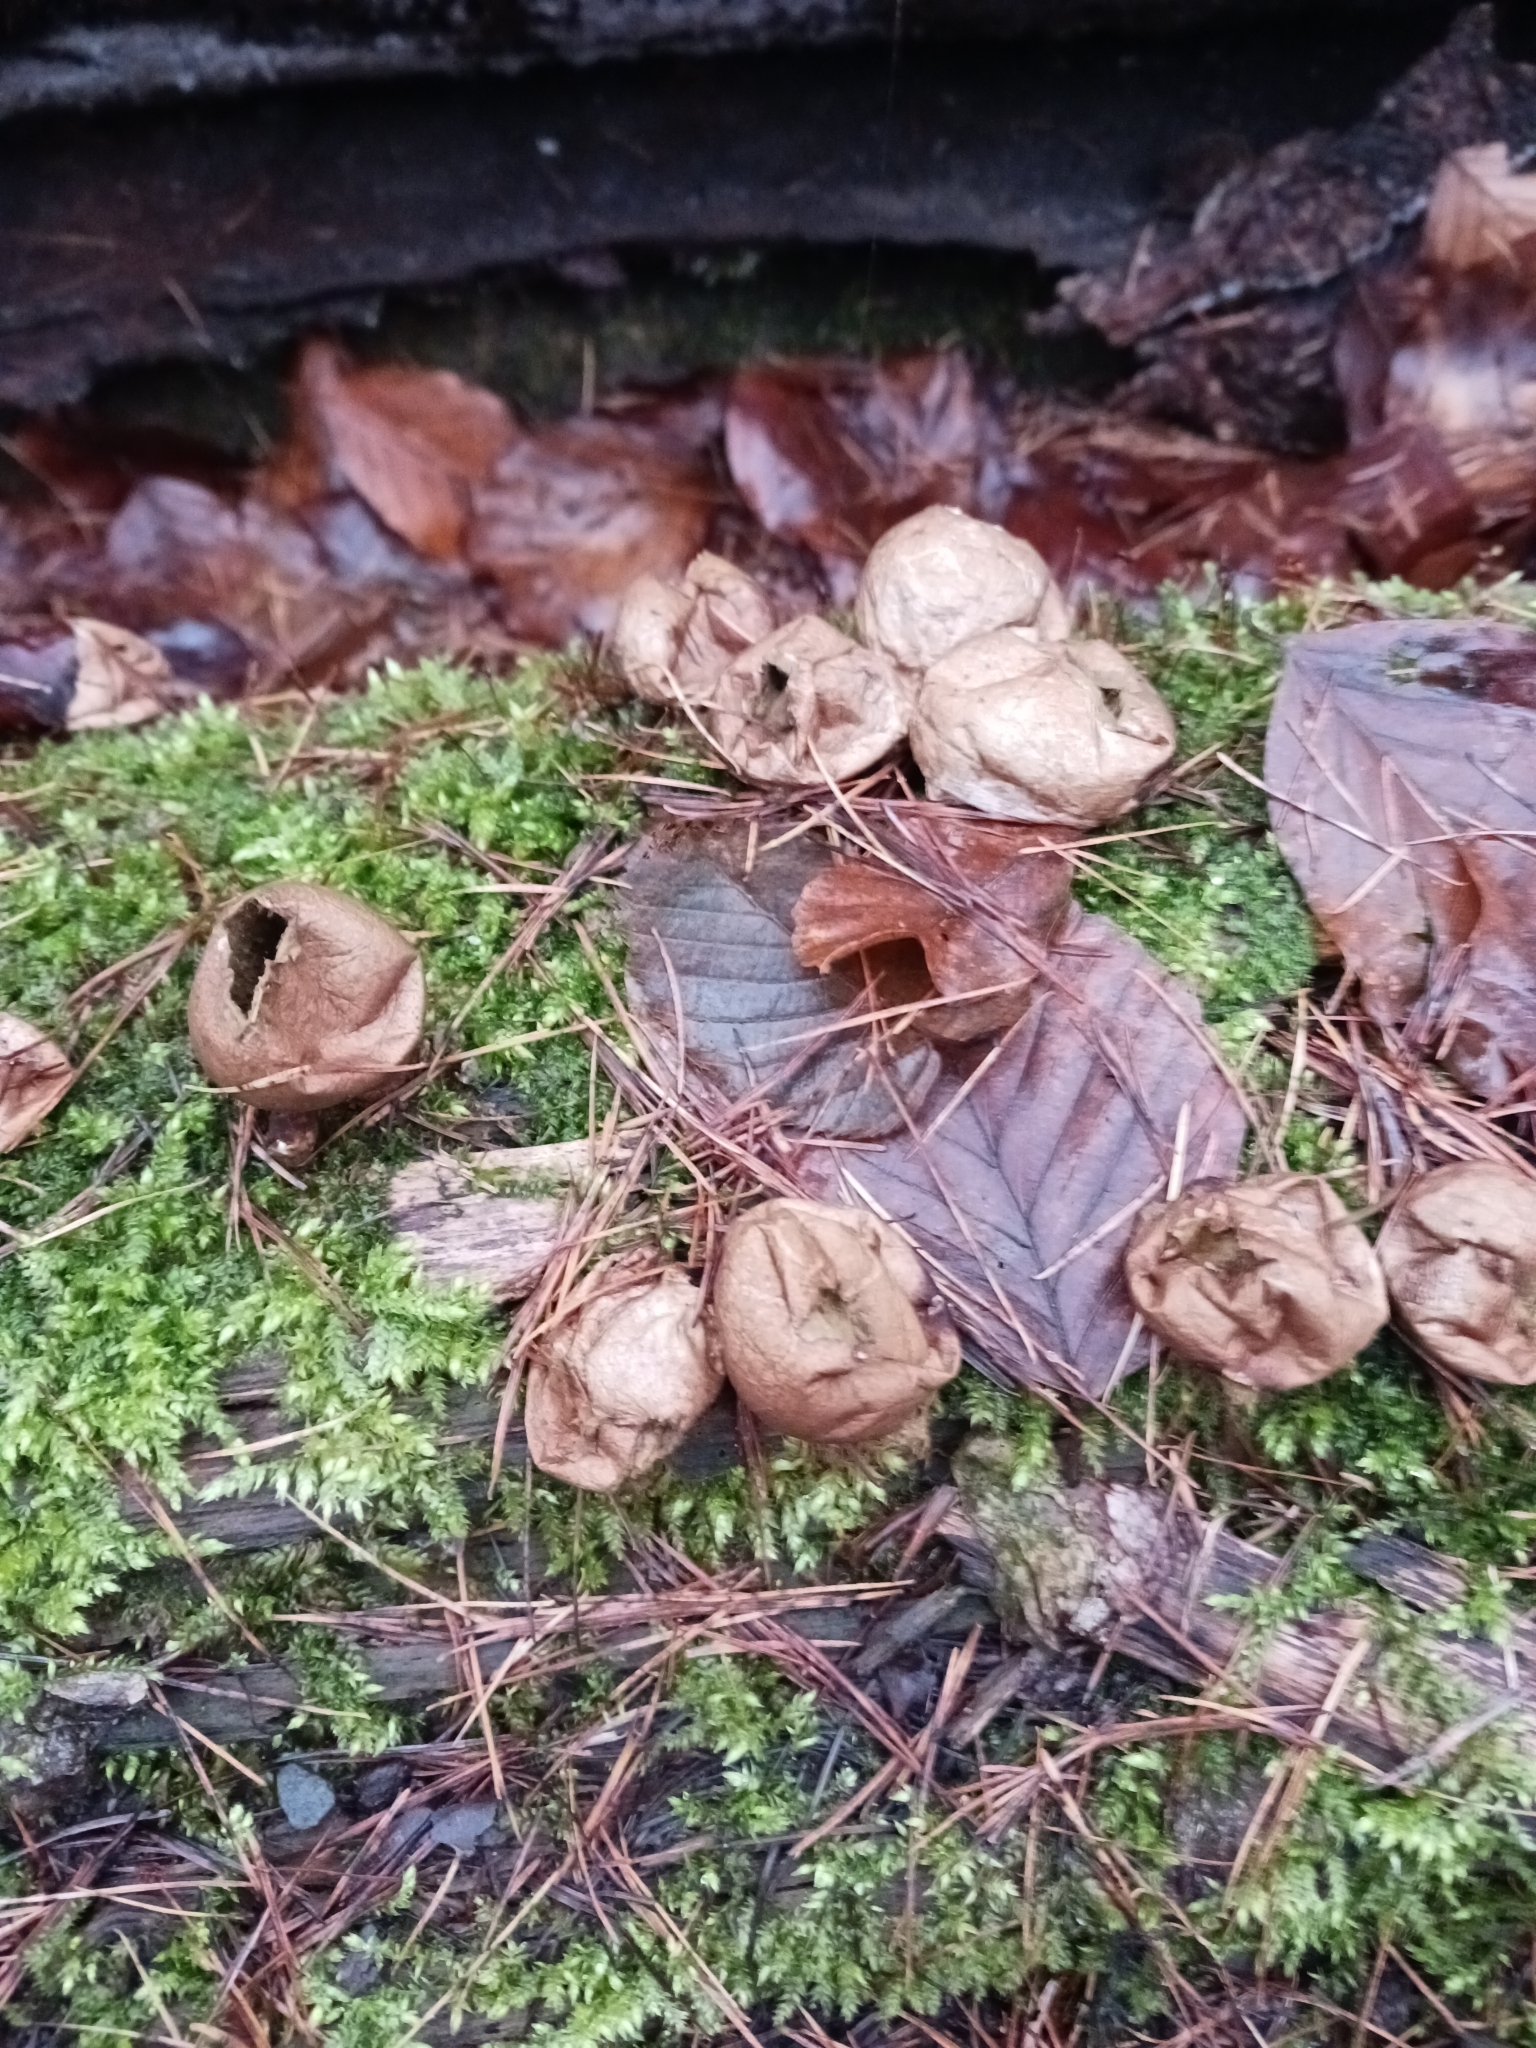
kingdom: Fungi
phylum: Basidiomycota
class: Agaricomycetes
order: Agaricales
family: Lycoperdaceae
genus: Apioperdon
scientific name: Apioperdon pyriforme
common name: Pear-shaped puffball
